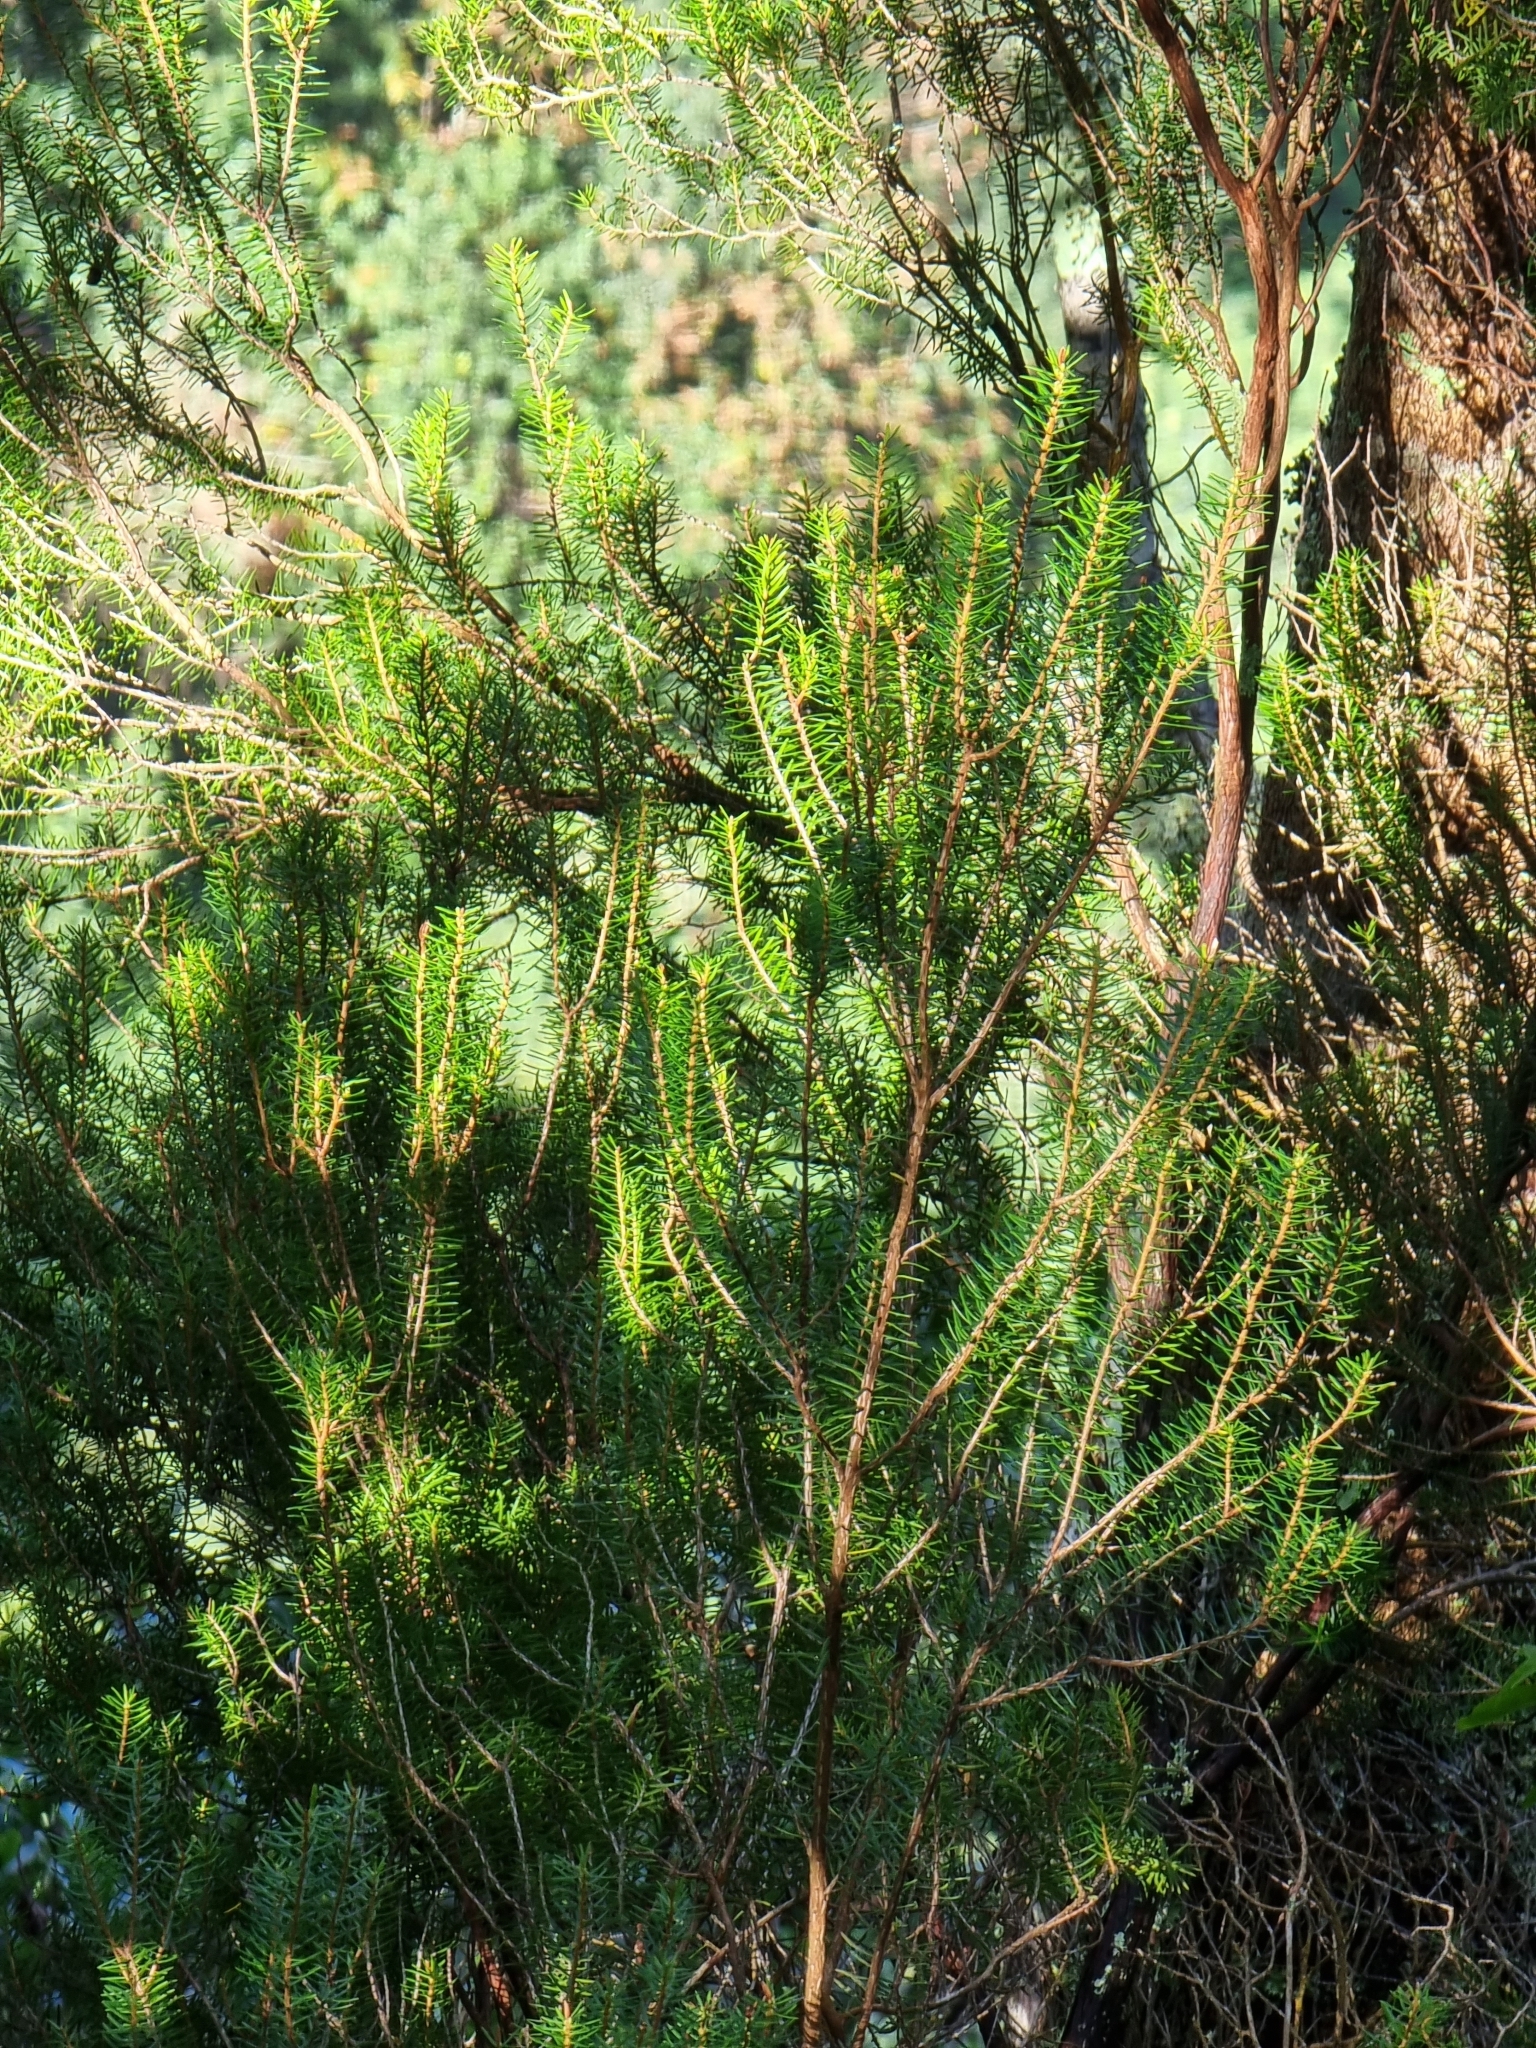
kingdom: Plantae
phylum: Tracheophyta
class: Magnoliopsida
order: Ericales
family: Ericaceae
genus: Erica
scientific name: Erica platycodon
